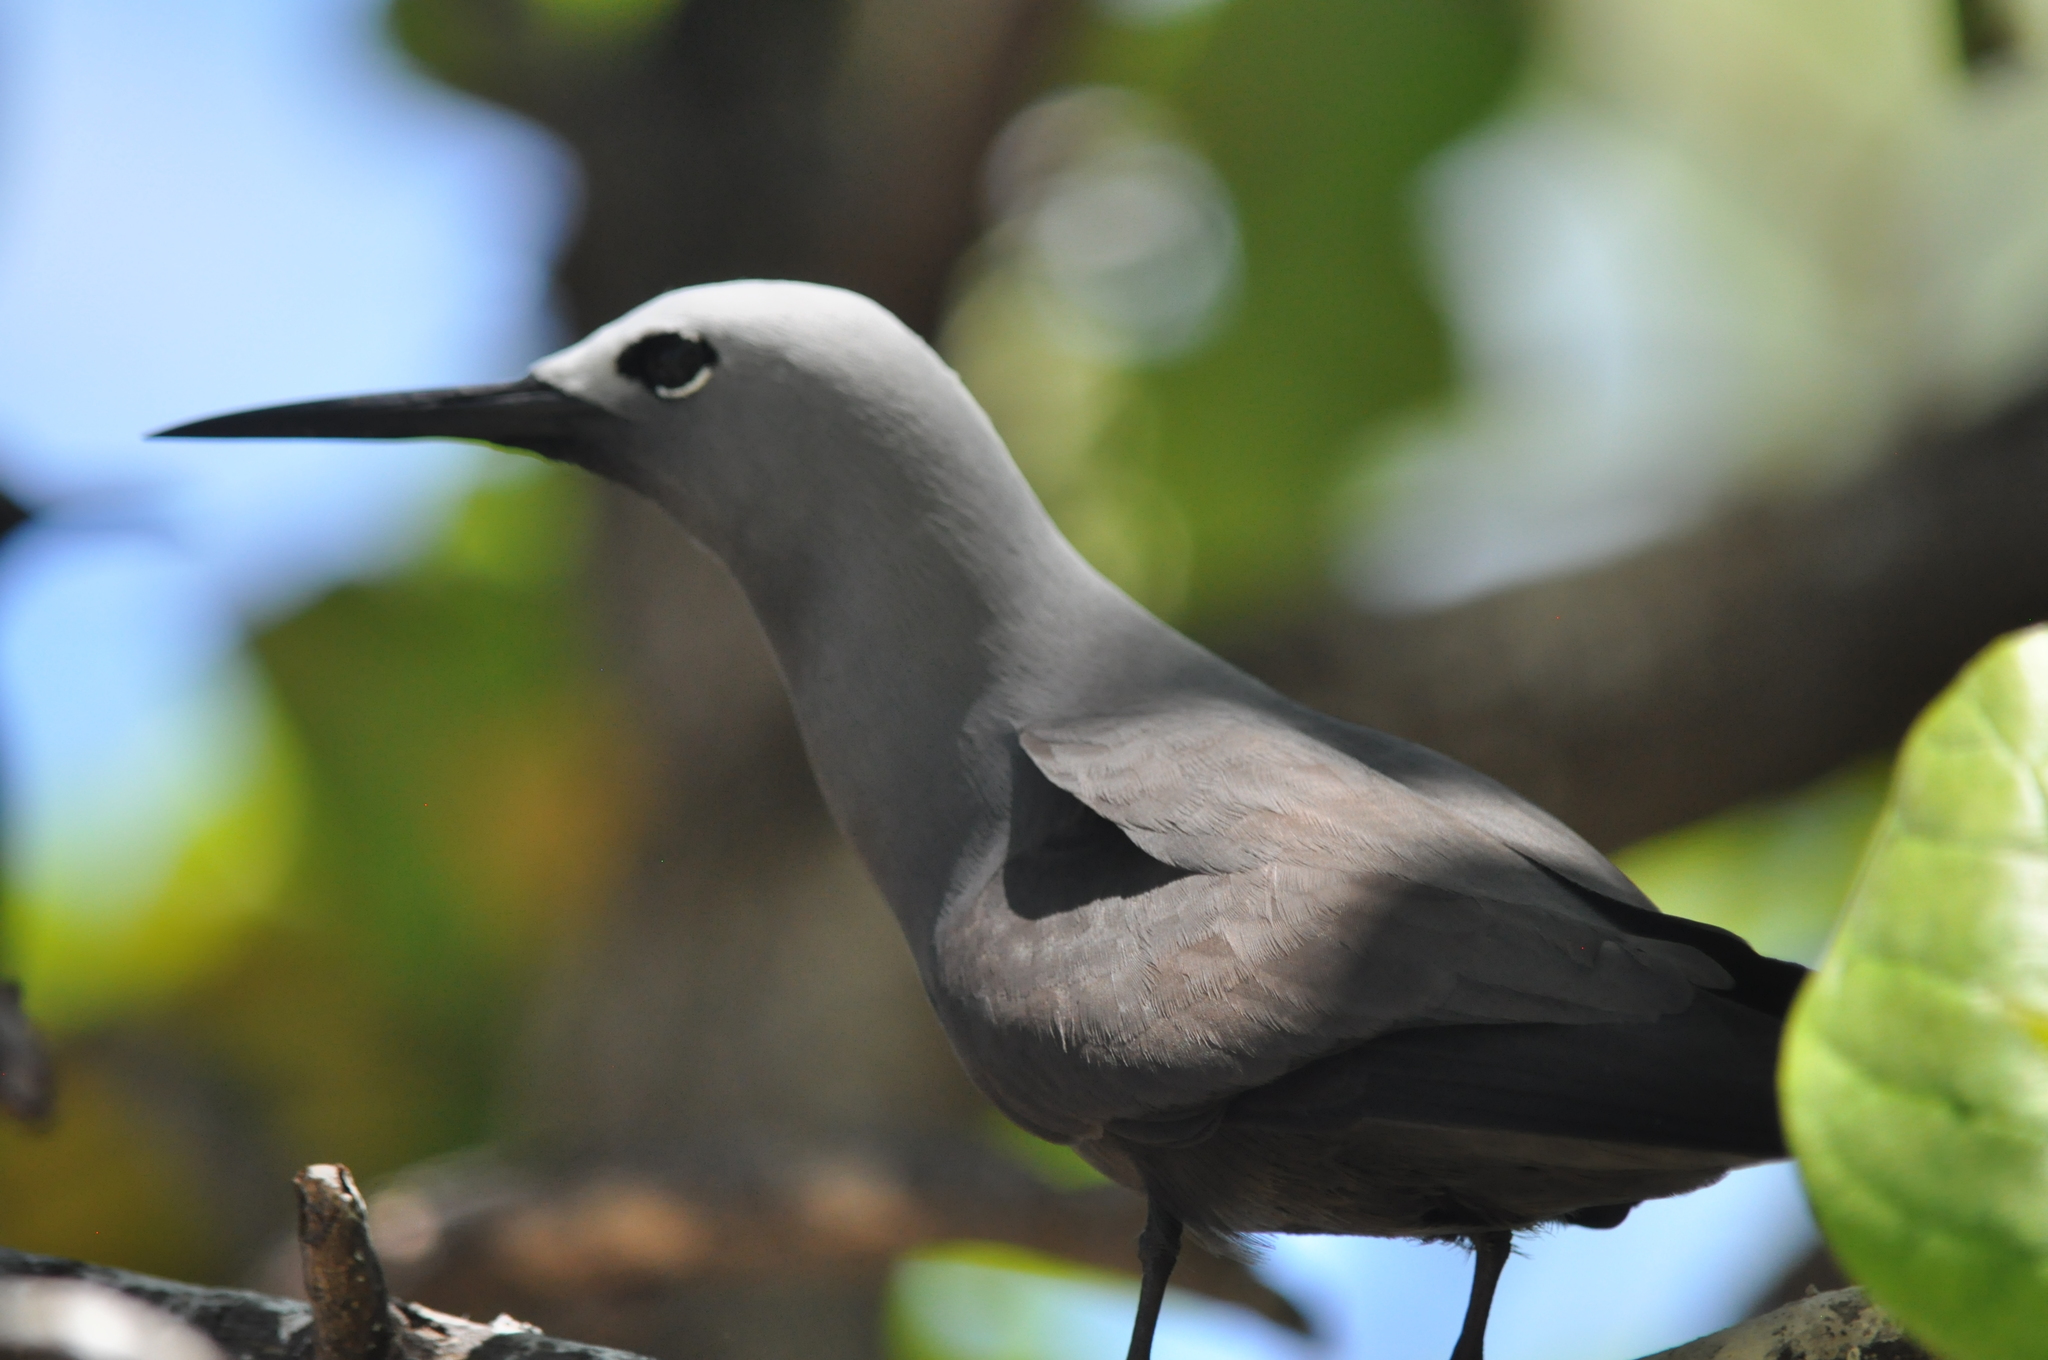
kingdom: Animalia
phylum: Chordata
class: Aves
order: Charadriiformes
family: Laridae
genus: Anous
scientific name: Anous tenuirostris
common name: Lesser noddy
